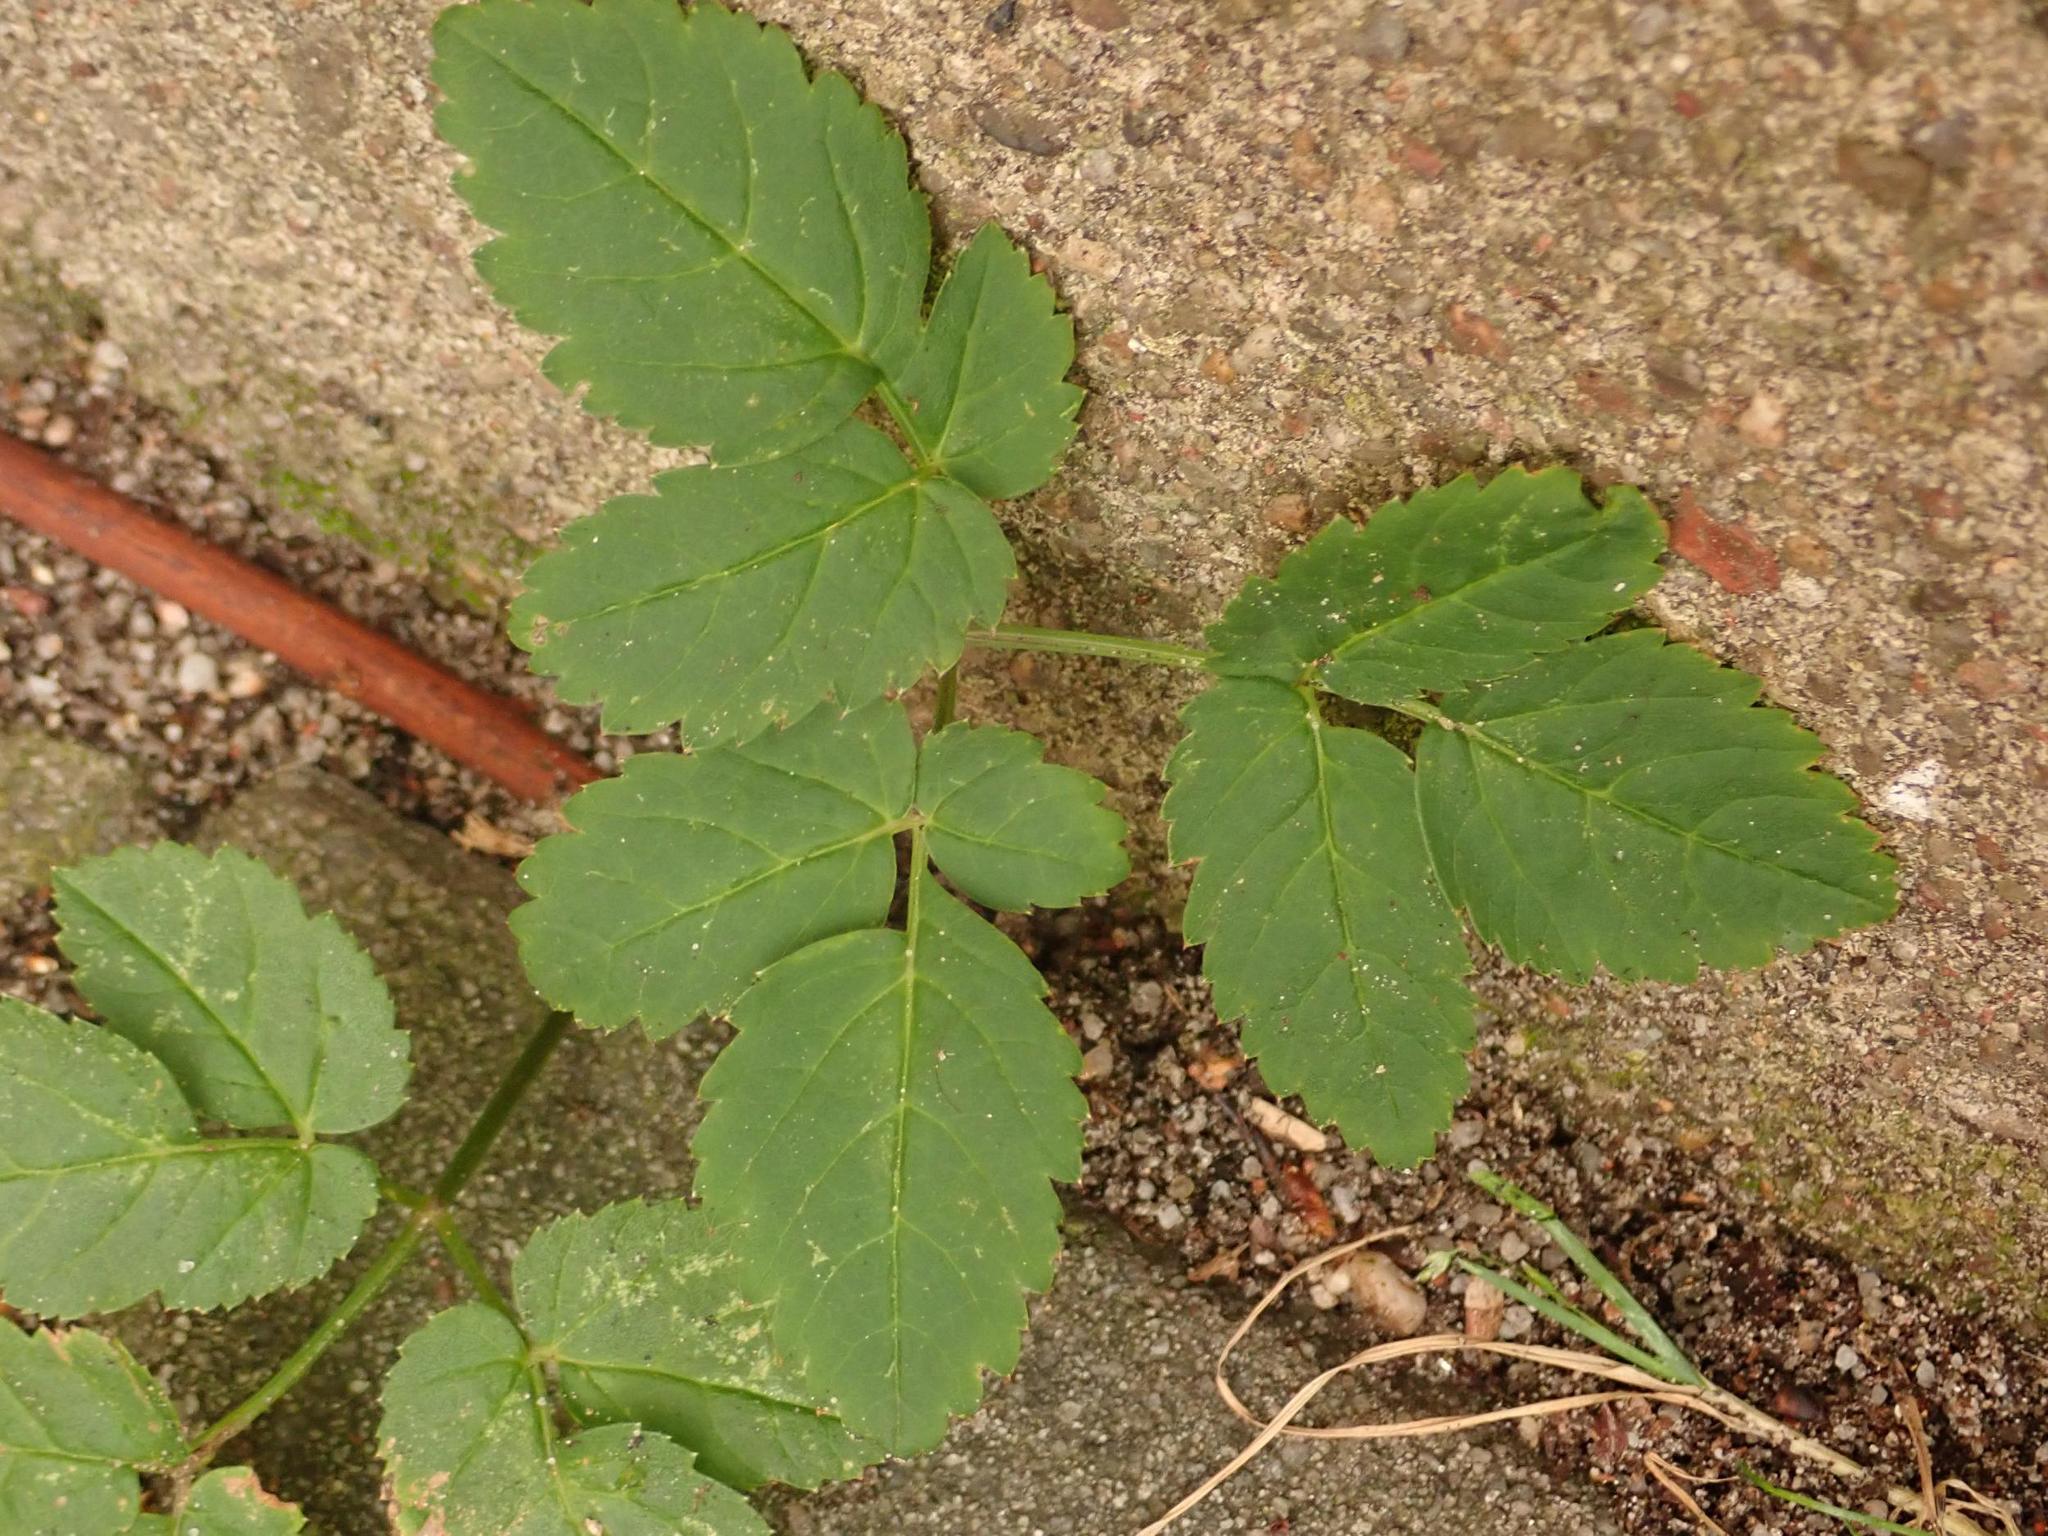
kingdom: Plantae
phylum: Tracheophyta
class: Magnoliopsida
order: Apiales
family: Apiaceae
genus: Aegopodium
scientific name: Aegopodium podagraria
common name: Ground-elder
